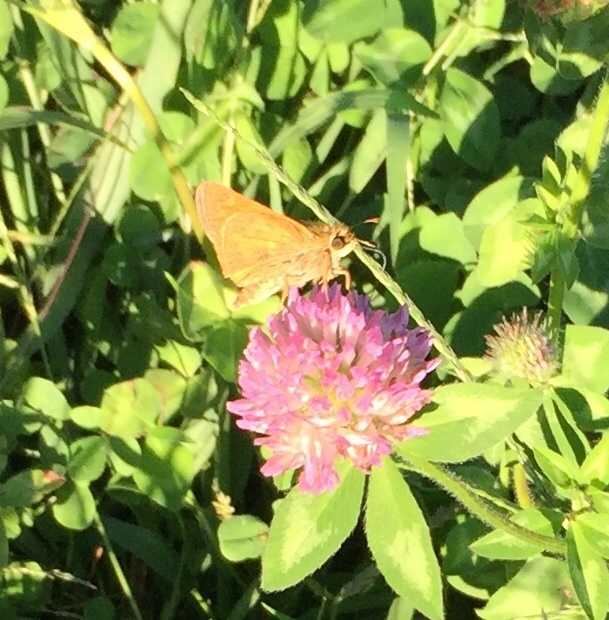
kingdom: Animalia
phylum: Arthropoda
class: Insecta
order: Lepidoptera
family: Hesperiidae
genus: Atalopedes
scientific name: Atalopedes
